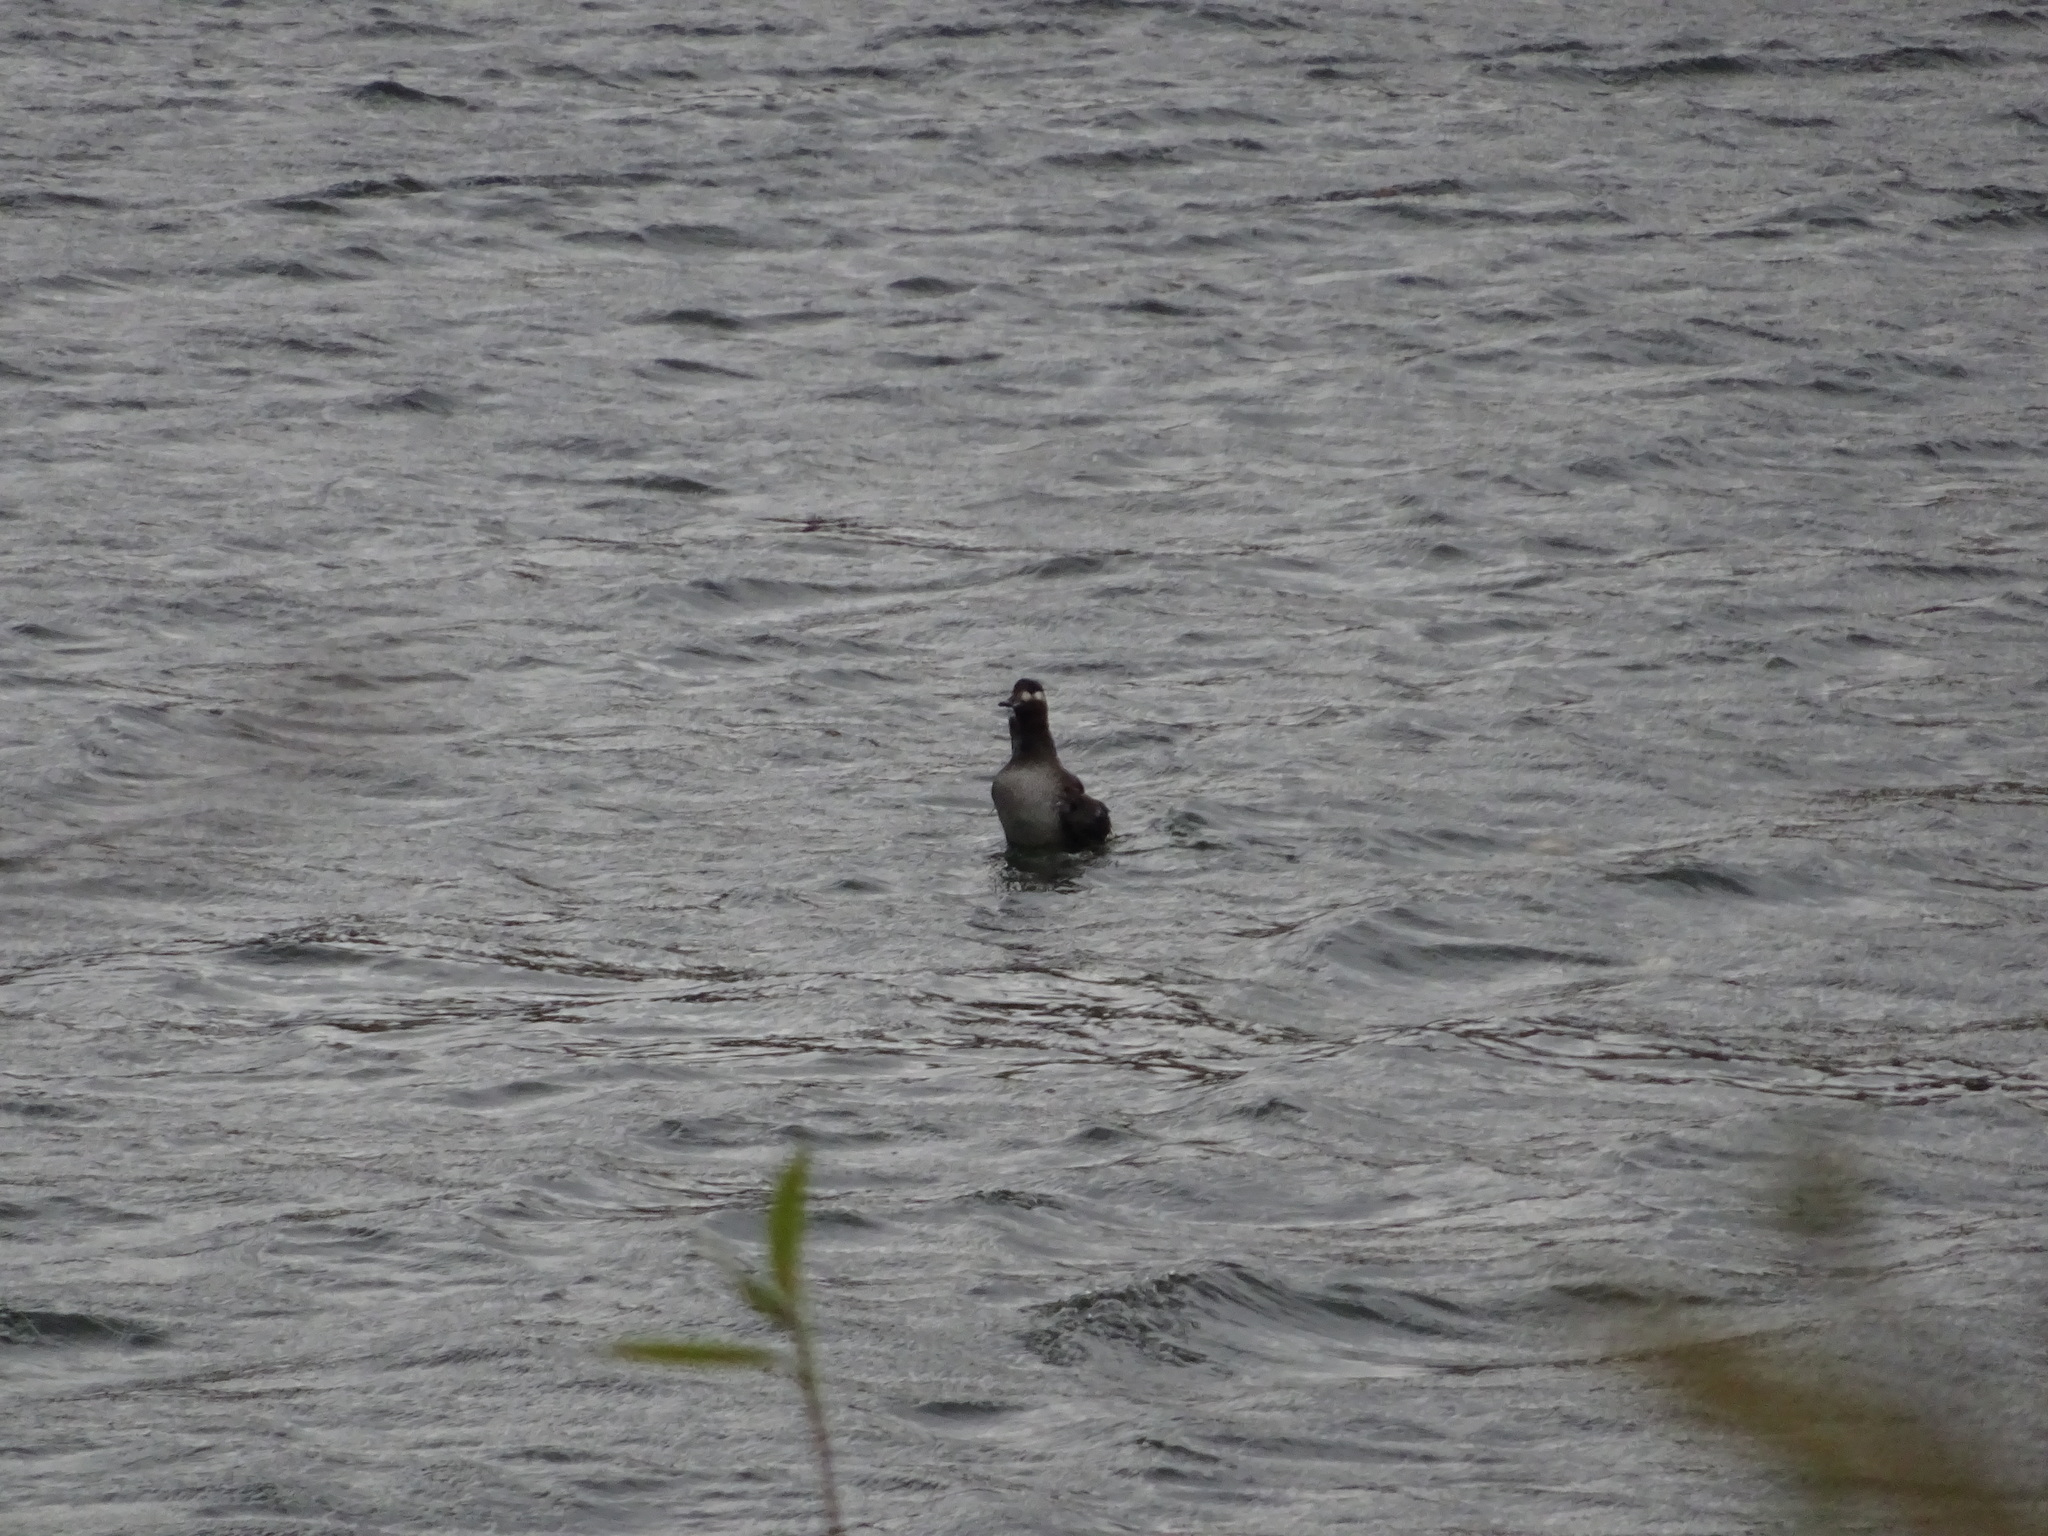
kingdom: Animalia
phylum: Chordata
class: Aves
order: Anseriformes
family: Anatidae
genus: Melanitta
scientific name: Melanitta fusca
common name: Velvet scoter
